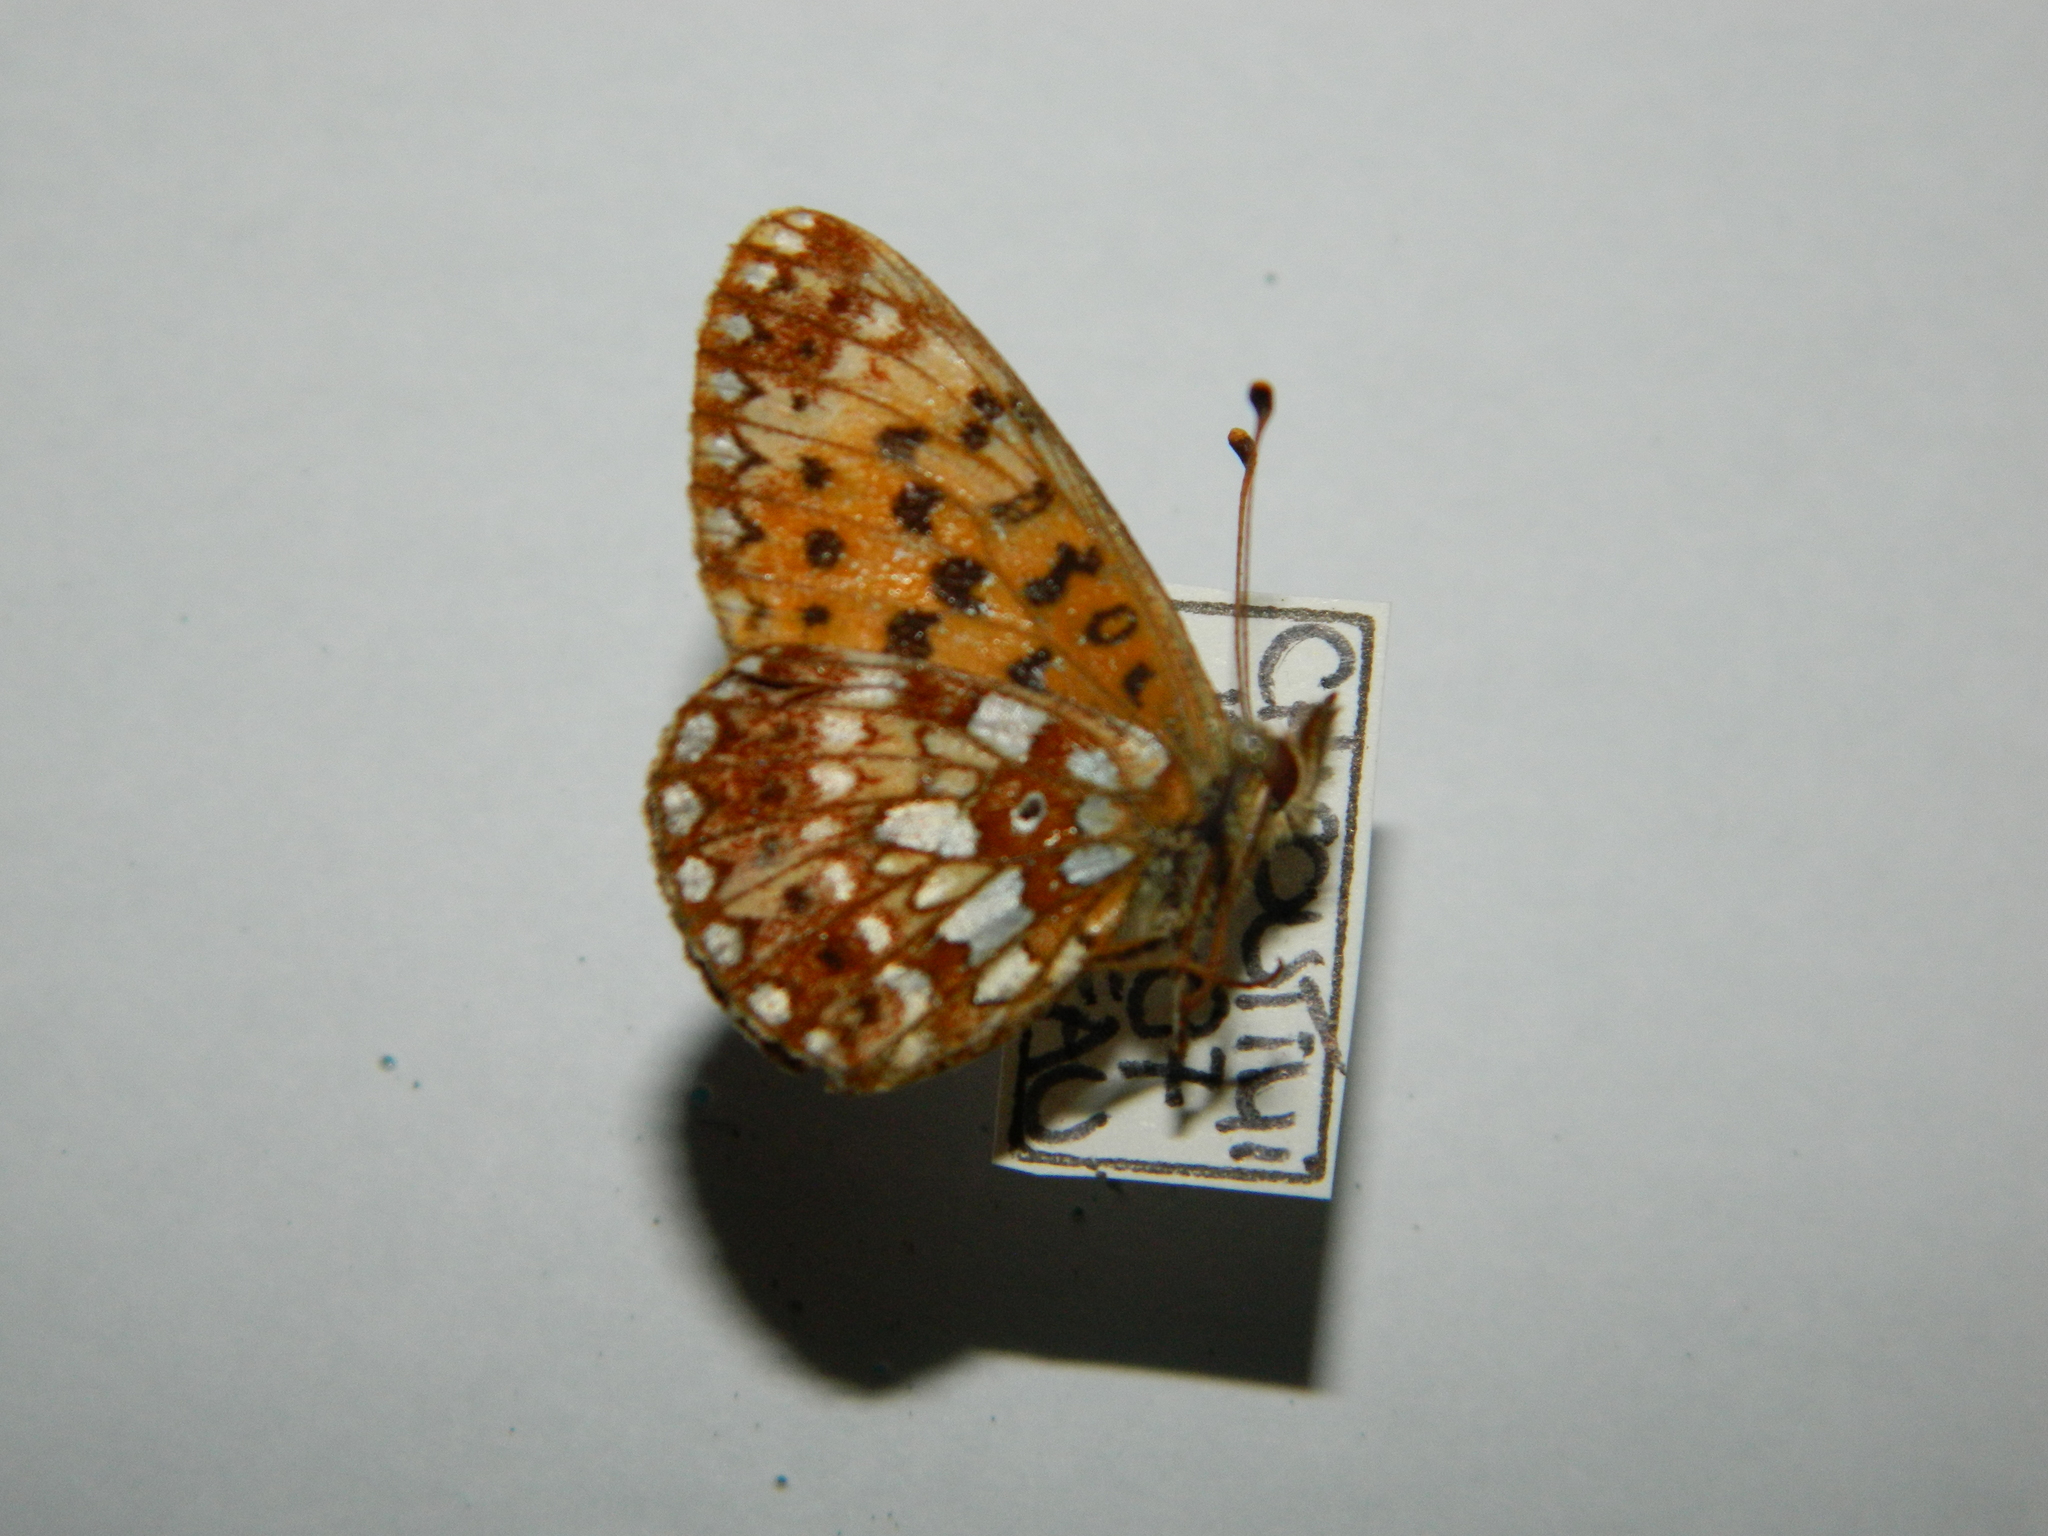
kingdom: Animalia
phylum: Arthropoda
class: Insecta
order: Lepidoptera
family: Nymphalidae
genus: Boloria
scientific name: Boloria
